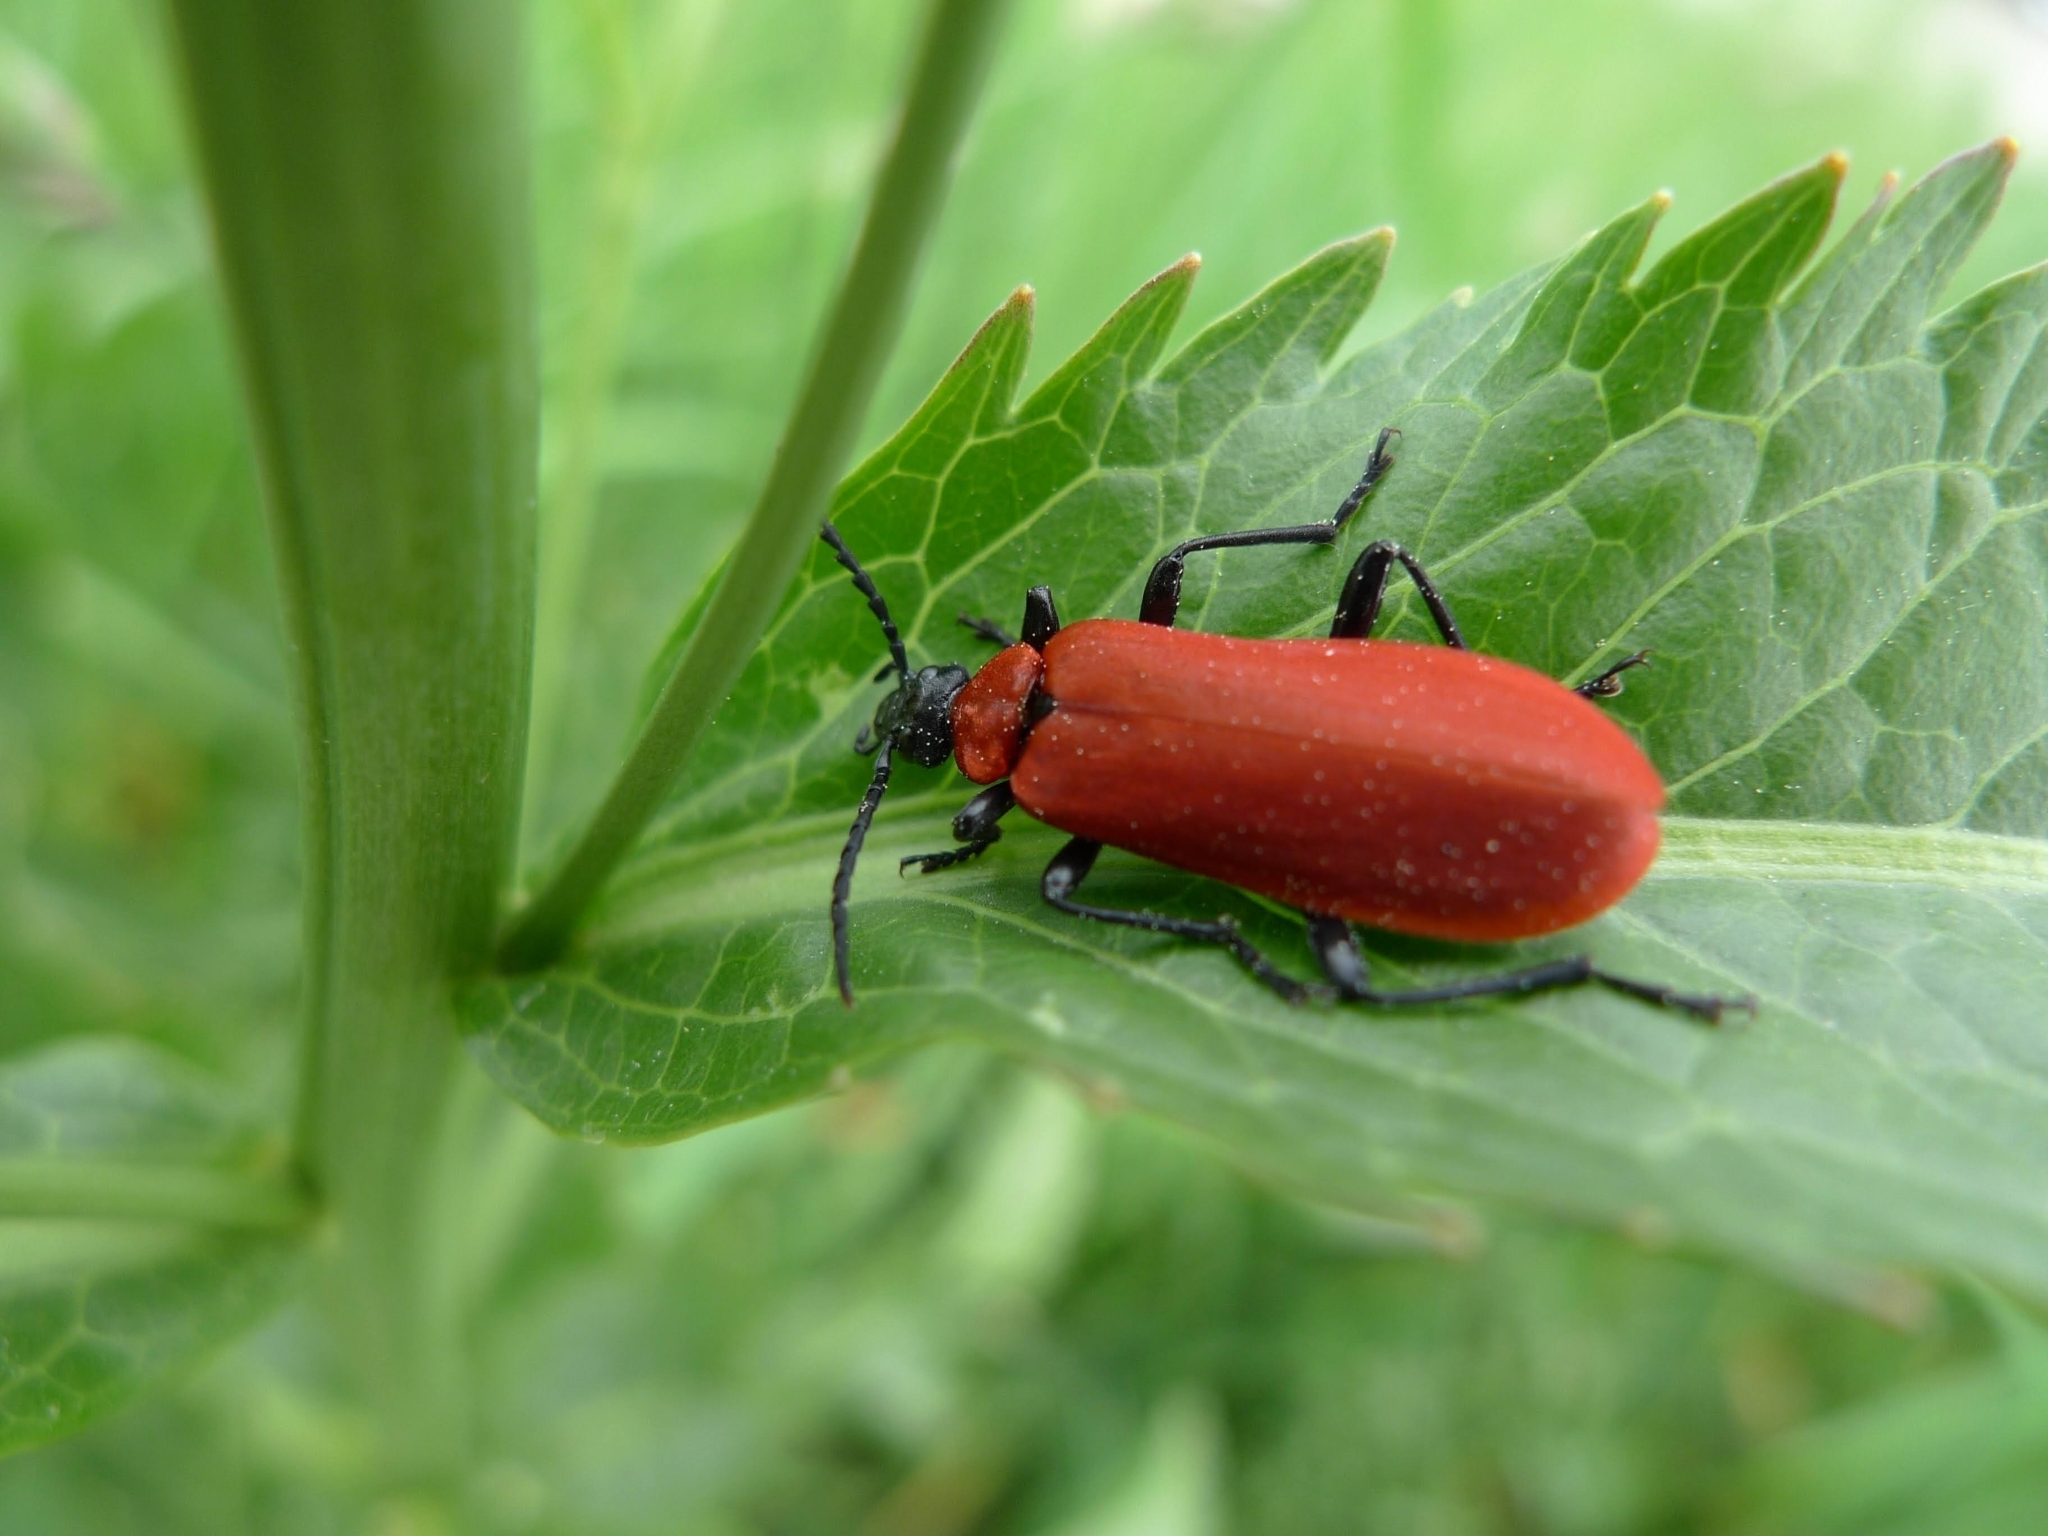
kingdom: Animalia
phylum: Arthropoda
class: Insecta
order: Coleoptera
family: Pyrochroidae
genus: Pyrochroa
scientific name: Pyrochroa coccinea
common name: Black-headed cardinal beetle
